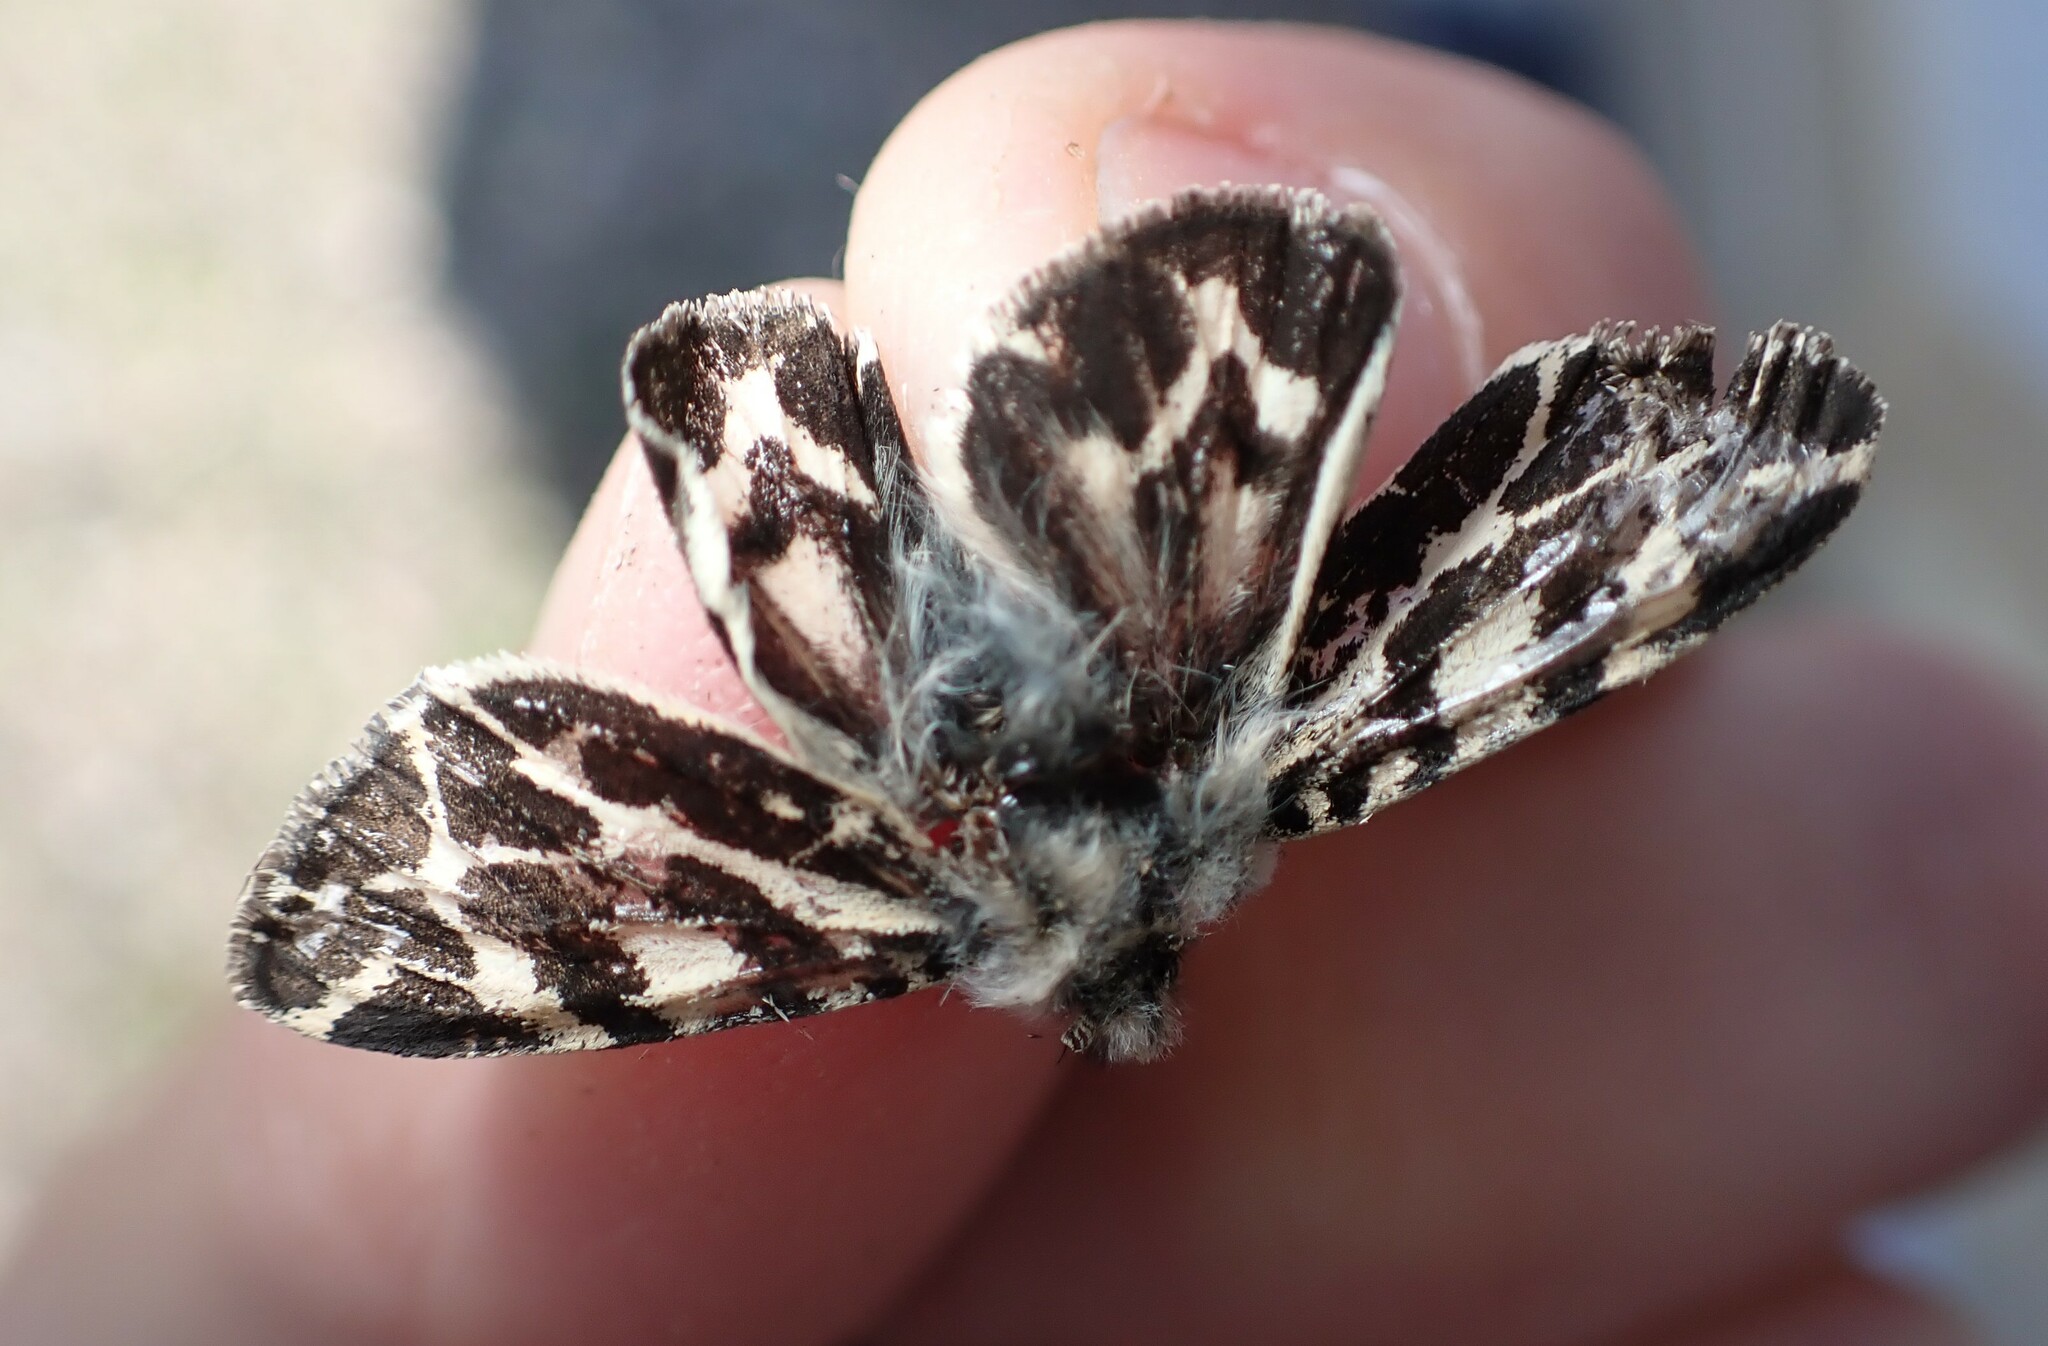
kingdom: Animalia
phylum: Arthropoda
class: Insecta
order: Lepidoptera
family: Erebidae
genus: Ocnogyna
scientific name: Ocnogyna boeticum
